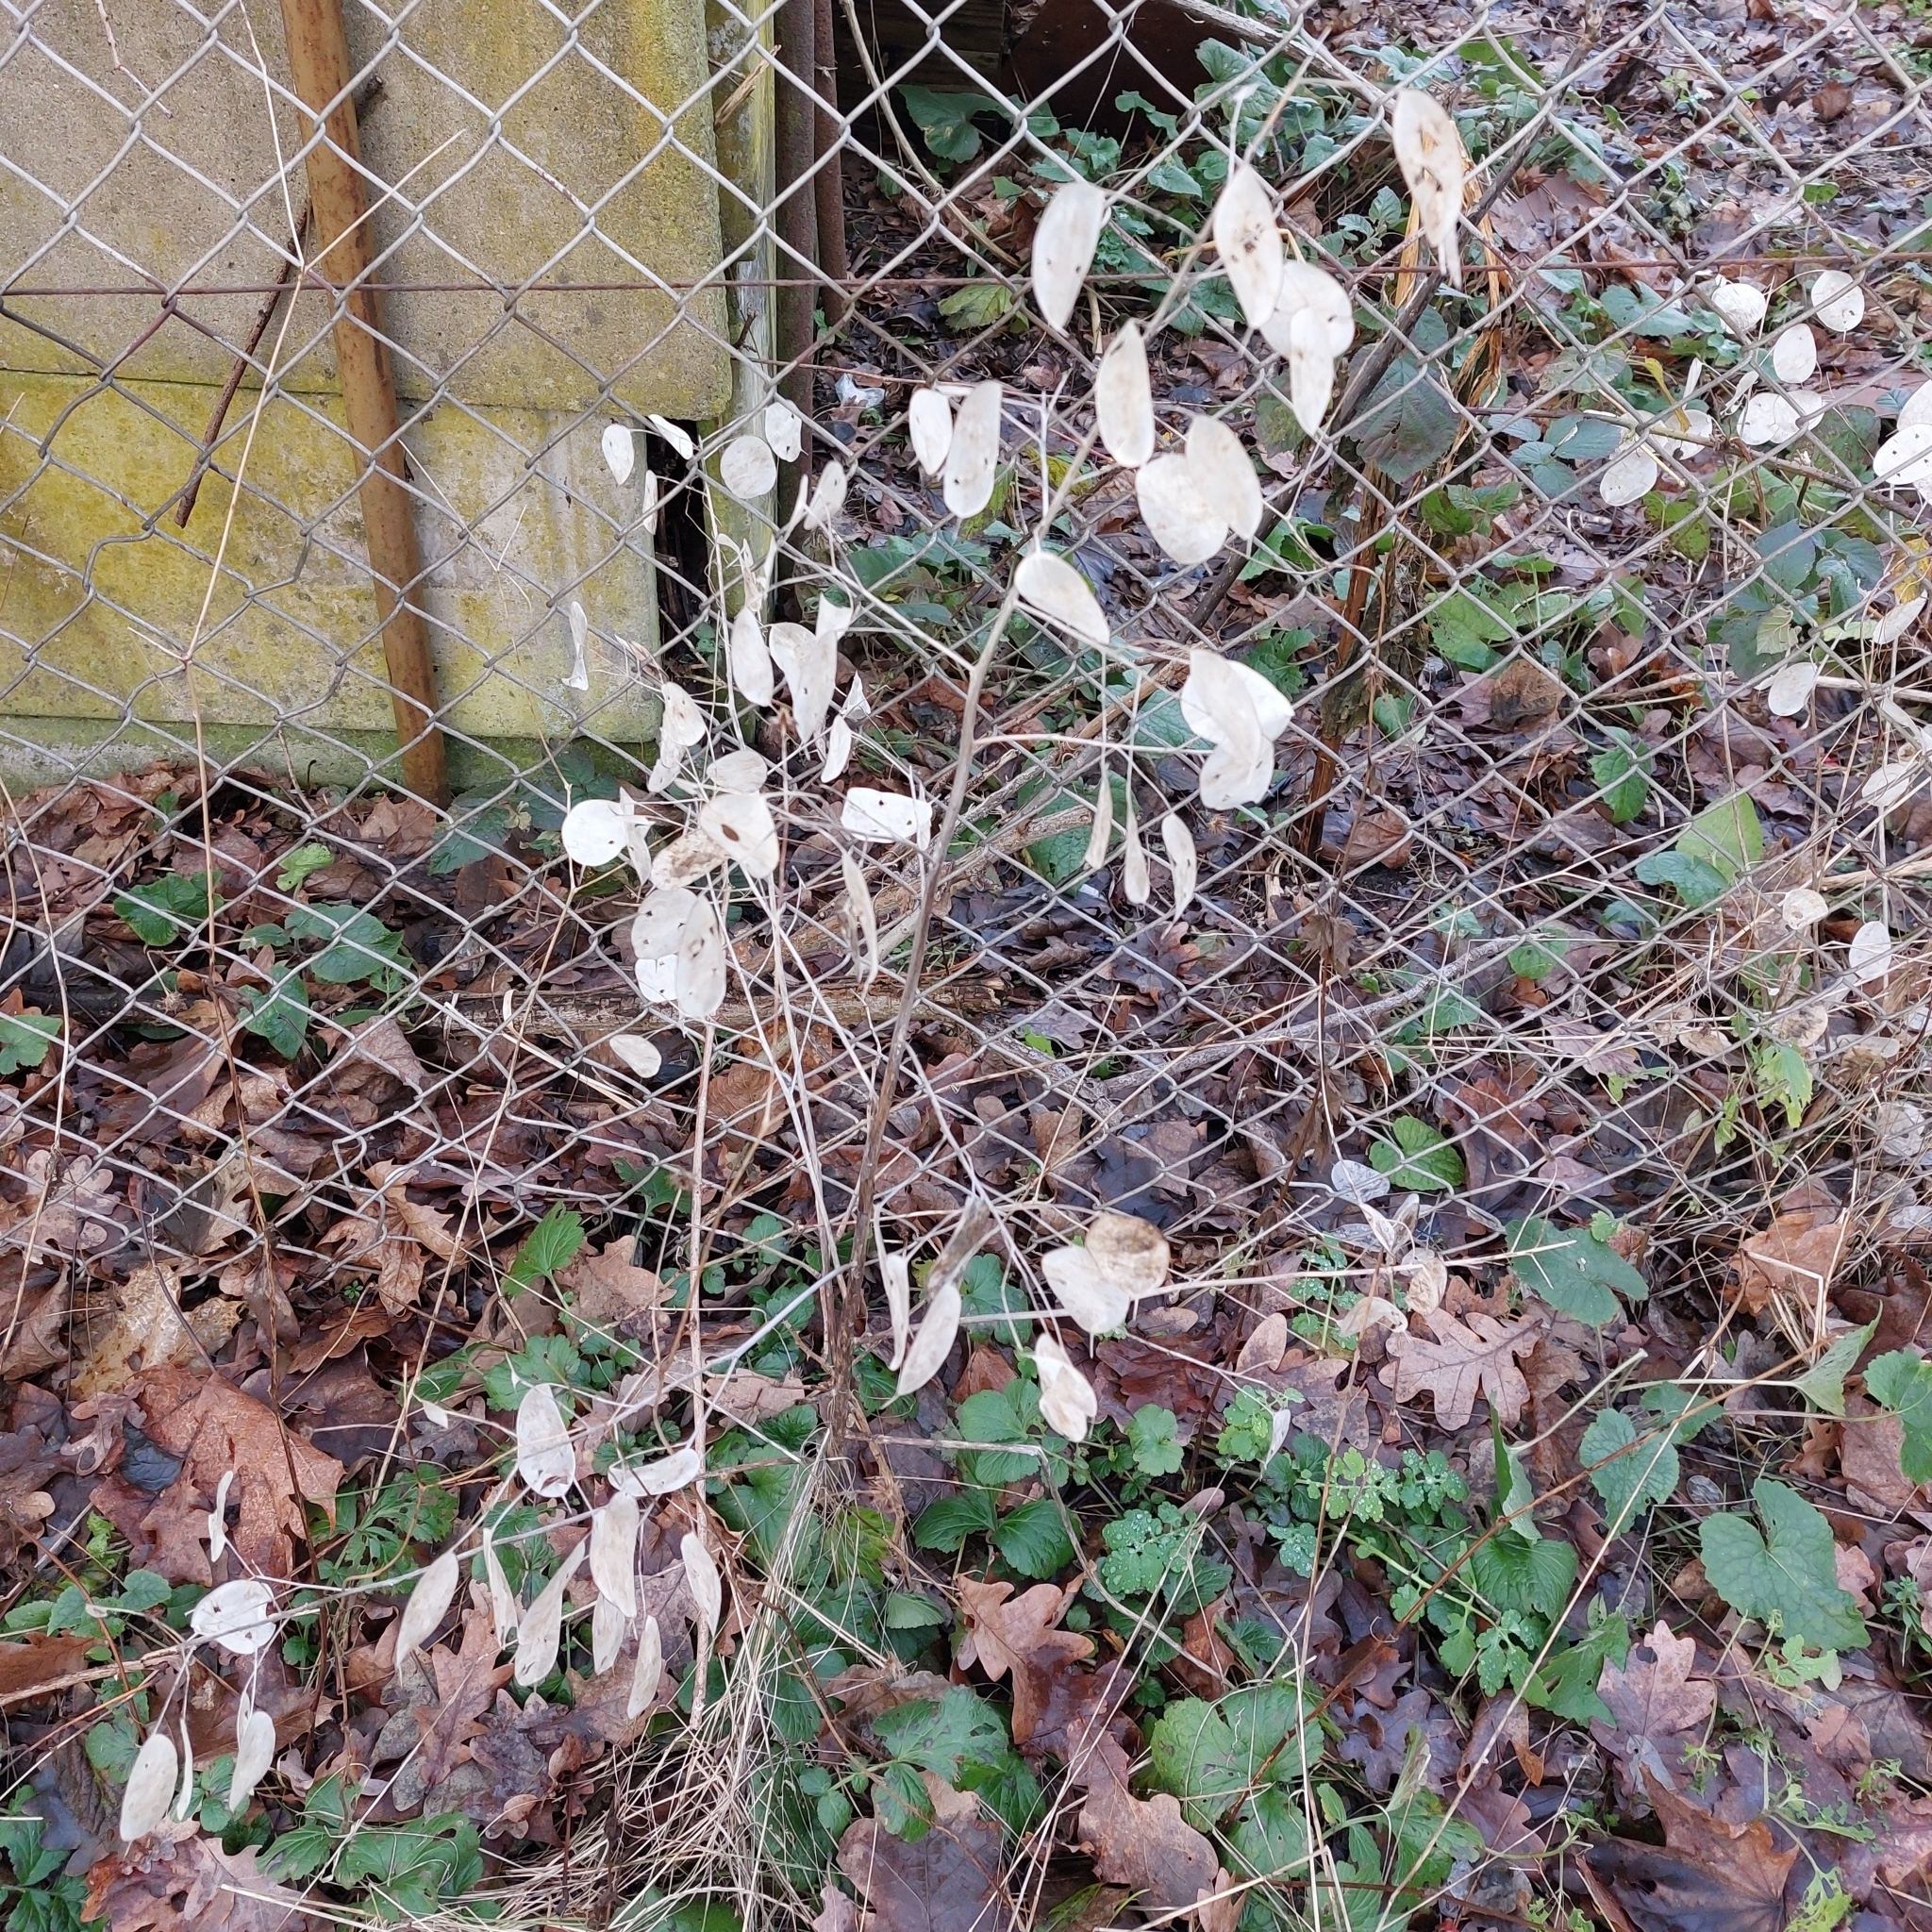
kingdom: Plantae
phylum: Tracheophyta
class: Magnoliopsida
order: Brassicales
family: Brassicaceae
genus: Lunaria
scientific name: Lunaria annua
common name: Honesty
